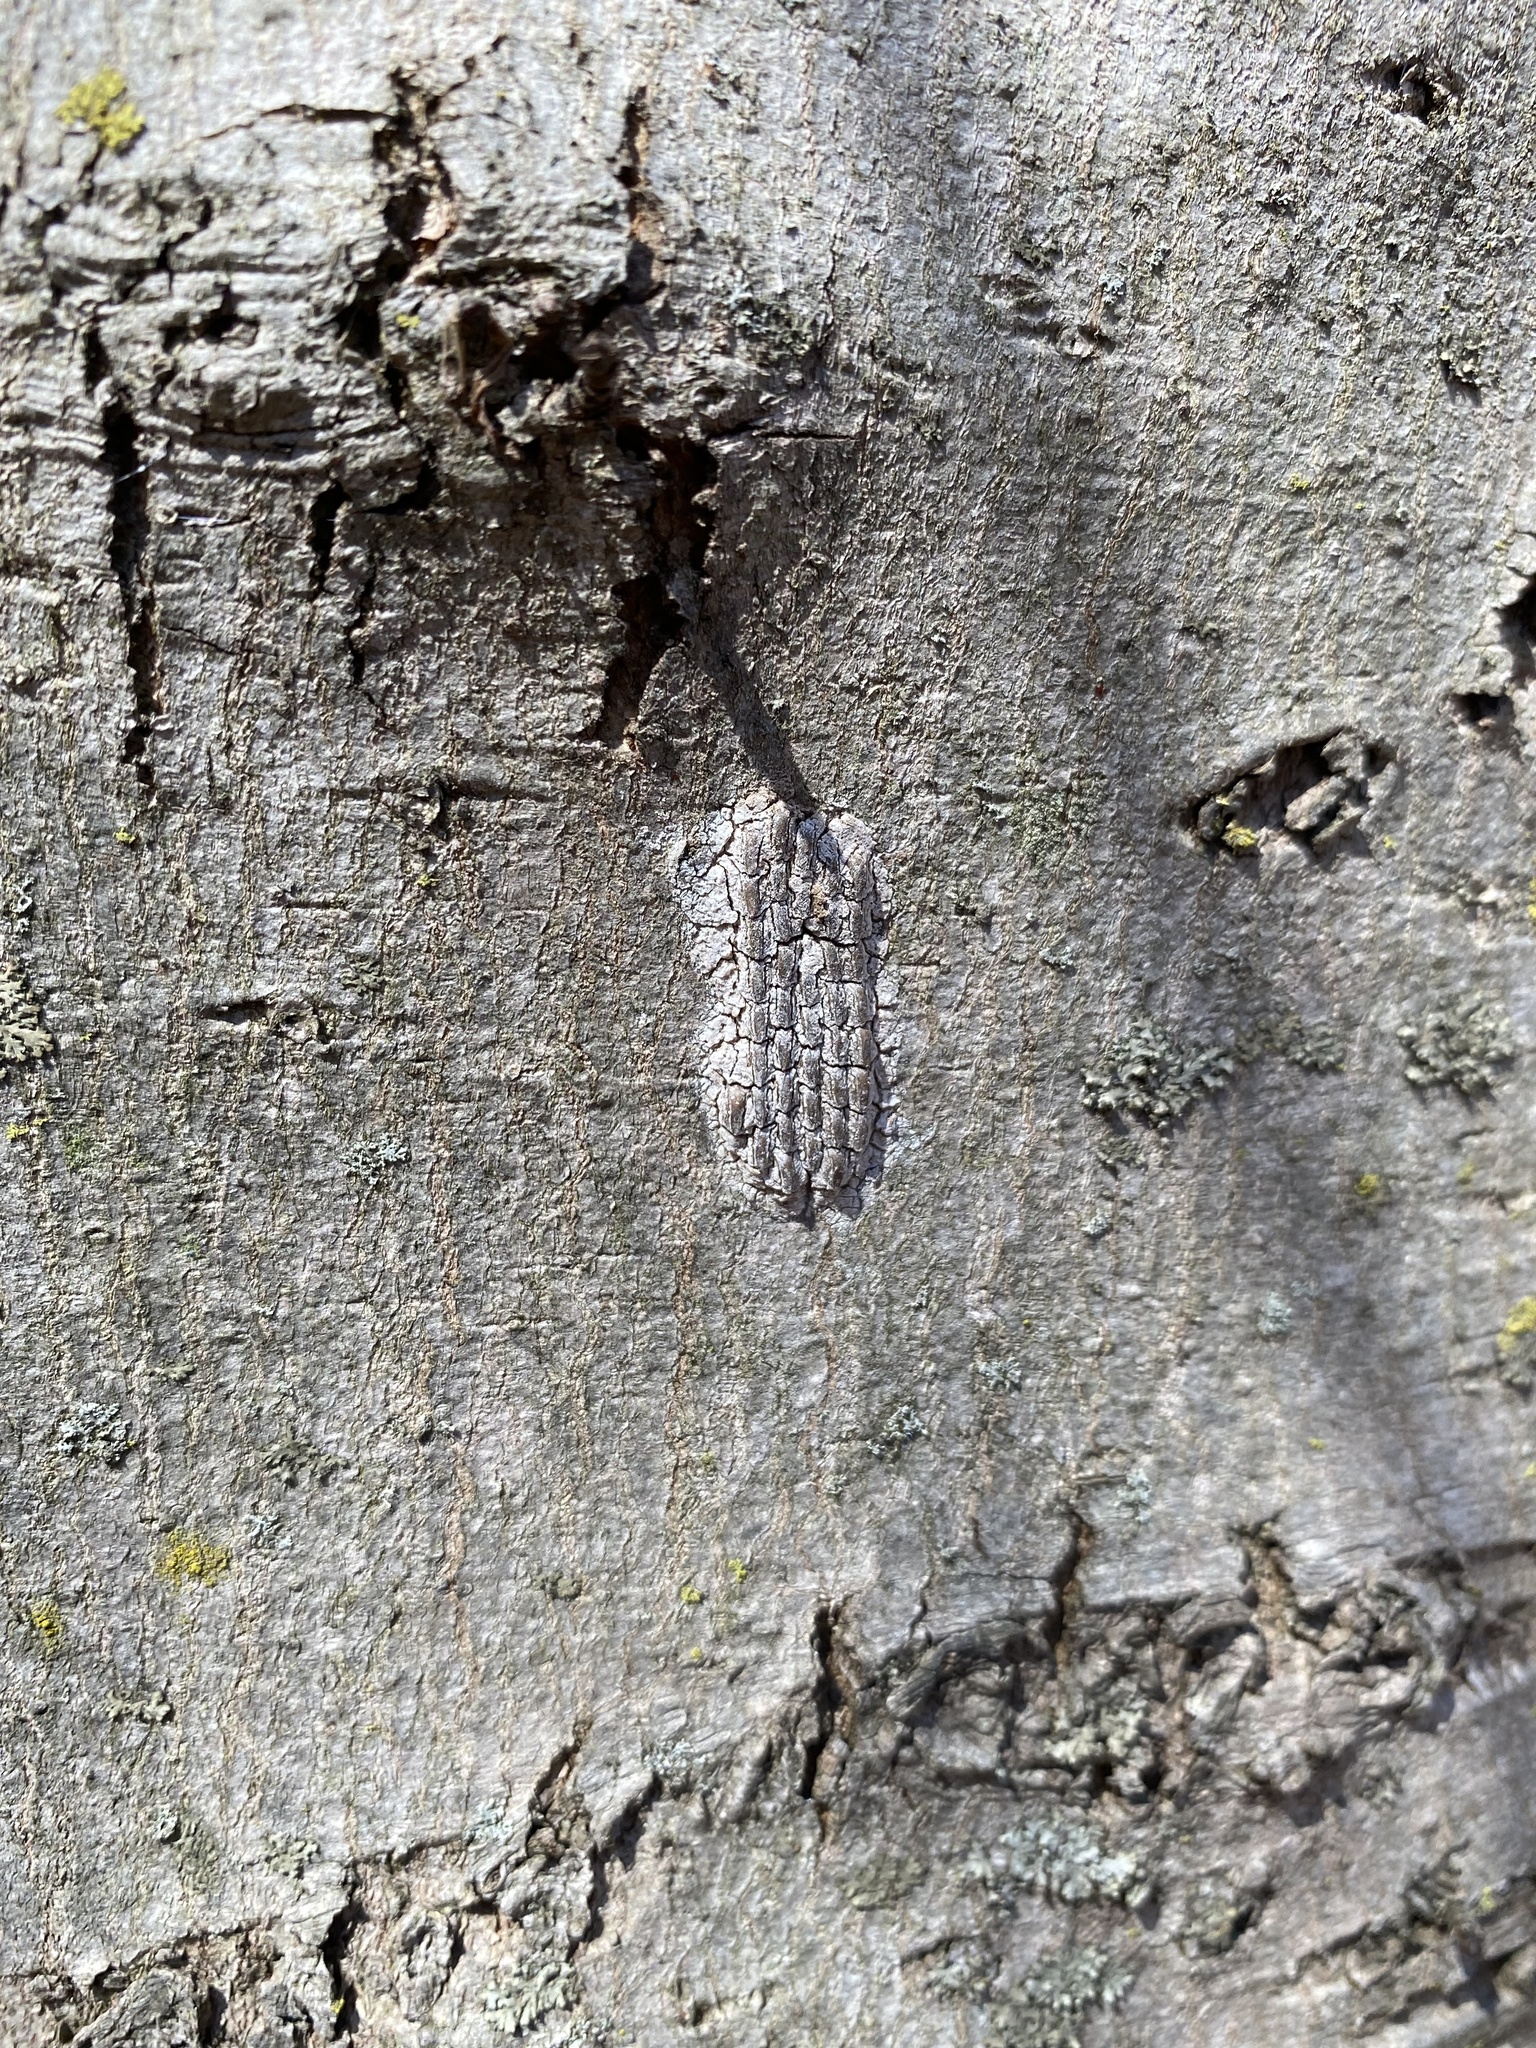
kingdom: Animalia
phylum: Arthropoda
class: Insecta
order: Hemiptera
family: Fulgoridae
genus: Lycorma
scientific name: Lycorma delicatula
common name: Spotted lanternfly
